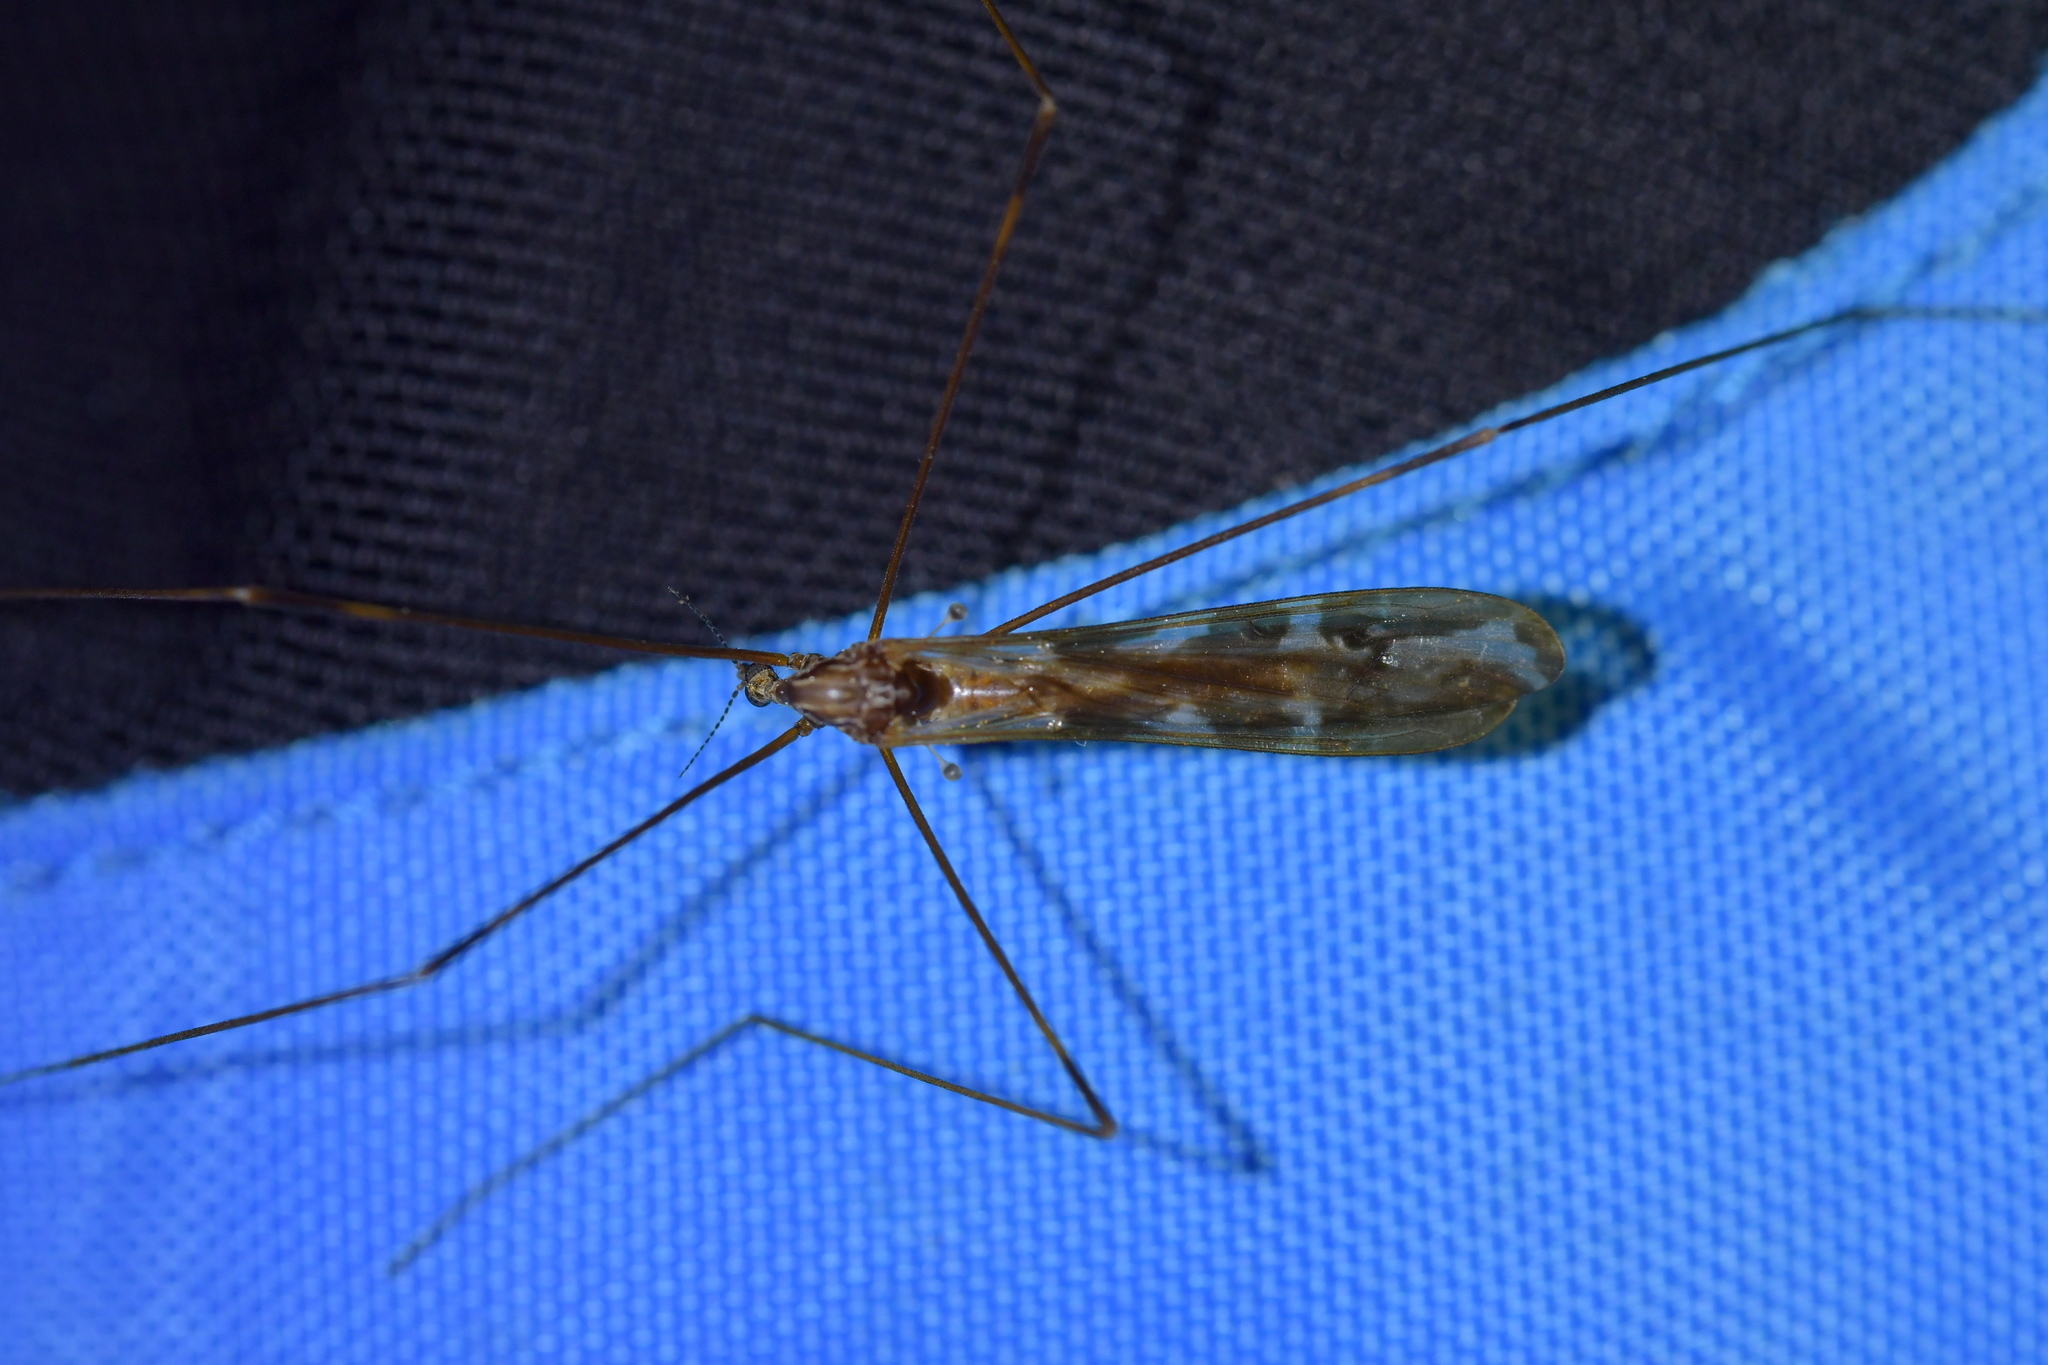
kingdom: Animalia
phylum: Arthropoda
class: Insecta
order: Diptera
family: Limoniidae
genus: Discobola
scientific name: Discobola dohrni
